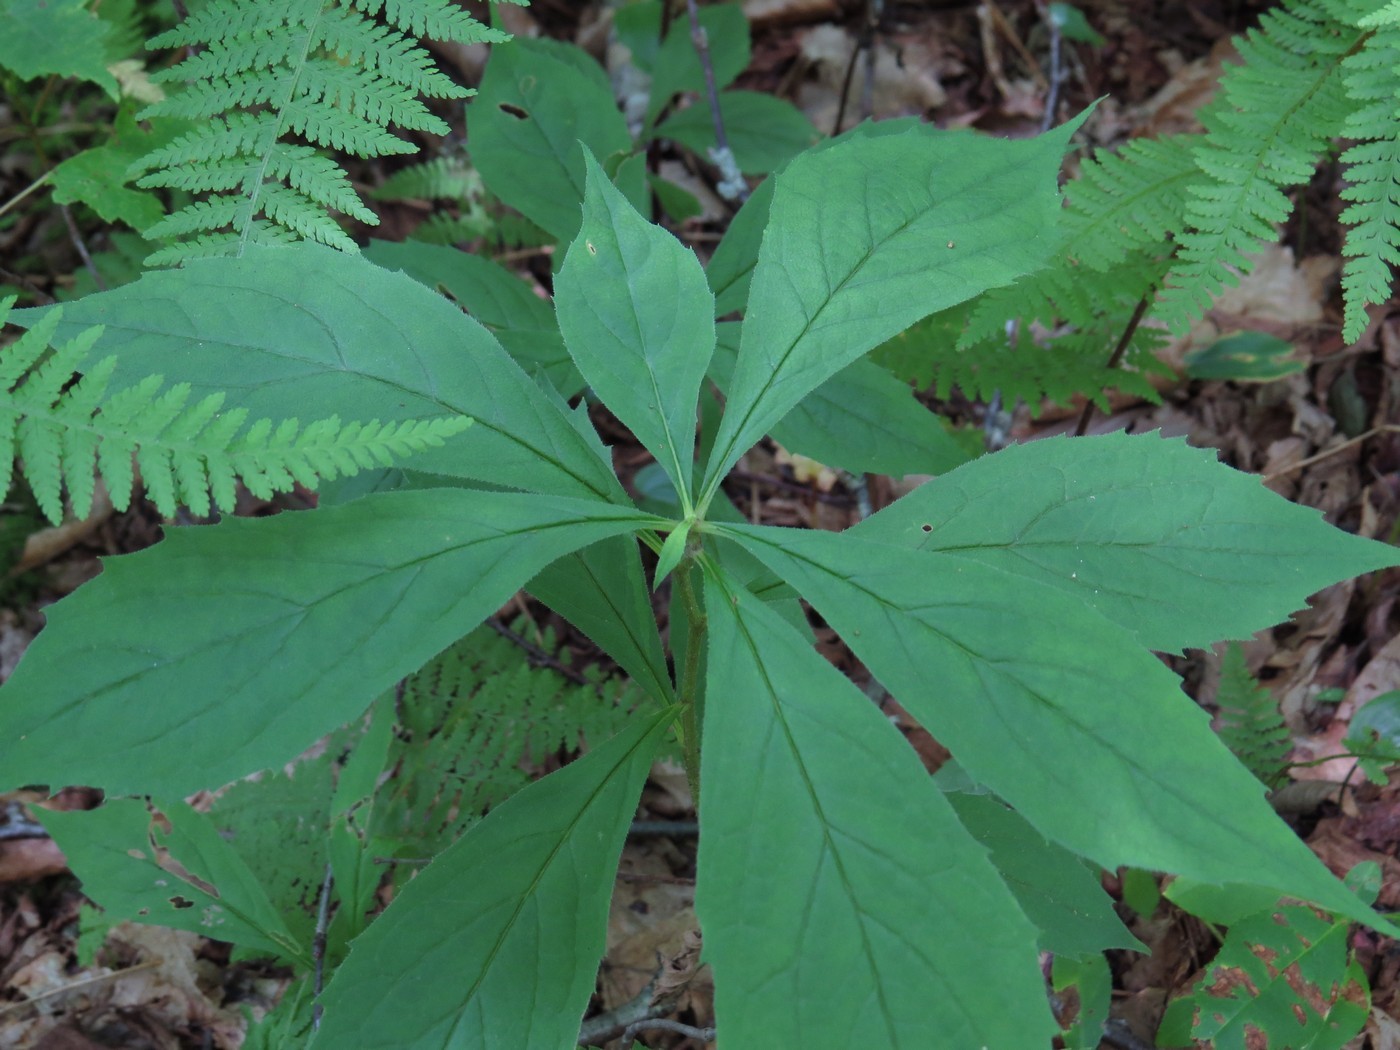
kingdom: Plantae
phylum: Tracheophyta
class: Magnoliopsida
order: Asterales
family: Asteraceae
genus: Oclemena
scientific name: Oclemena acuminata
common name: Mountain aster
